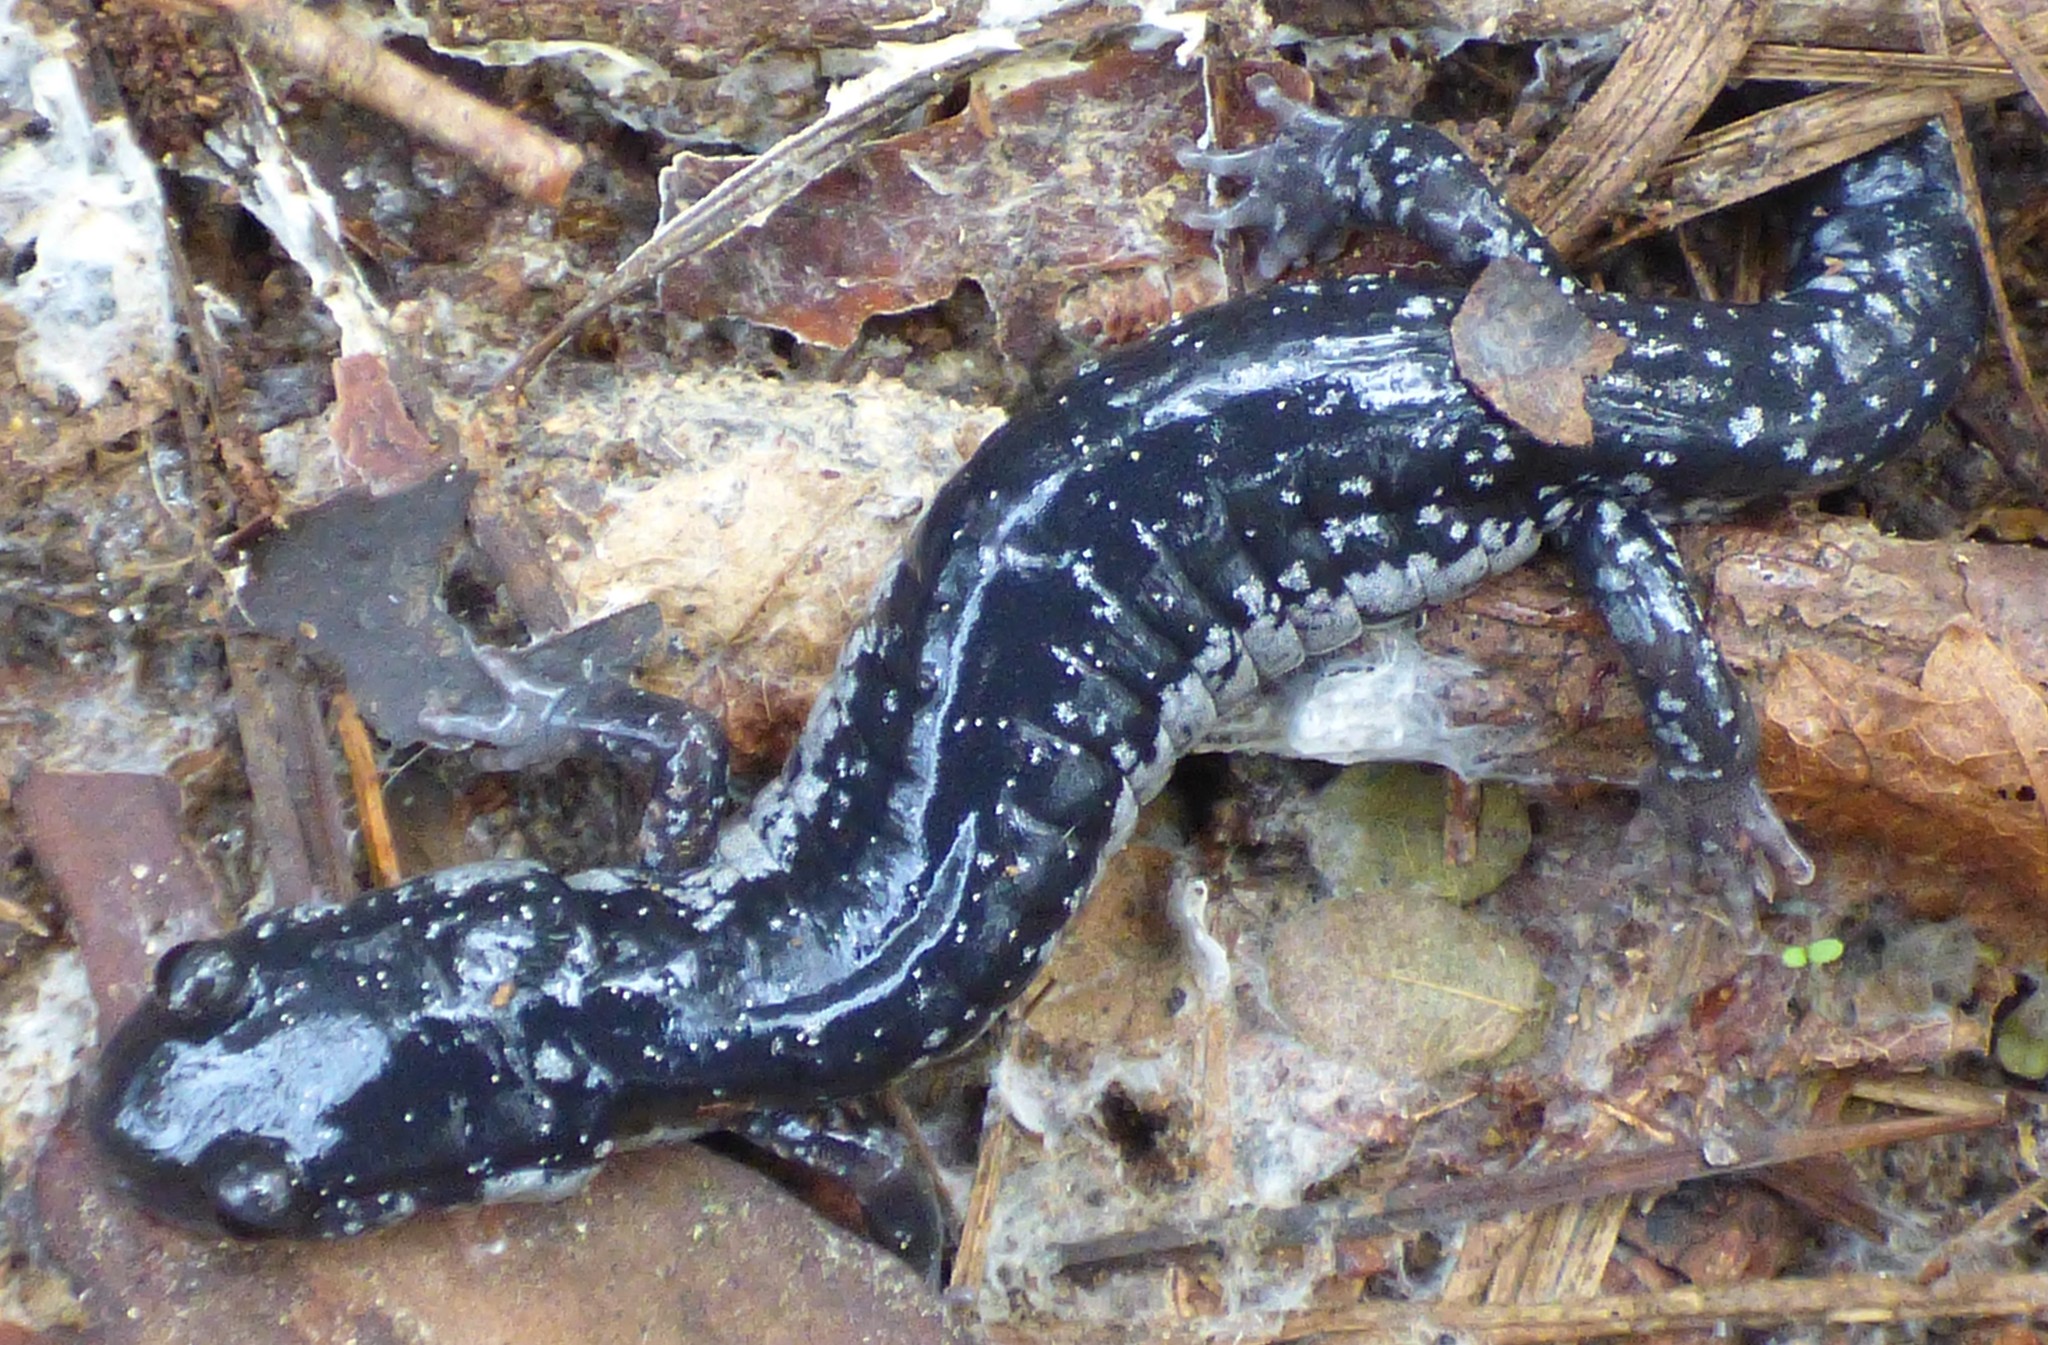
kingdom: Animalia
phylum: Chordata
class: Amphibia
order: Caudata
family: Plethodontidae
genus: Plethodon
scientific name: Plethodon cylindraceus
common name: White-spotted slimy salamander
